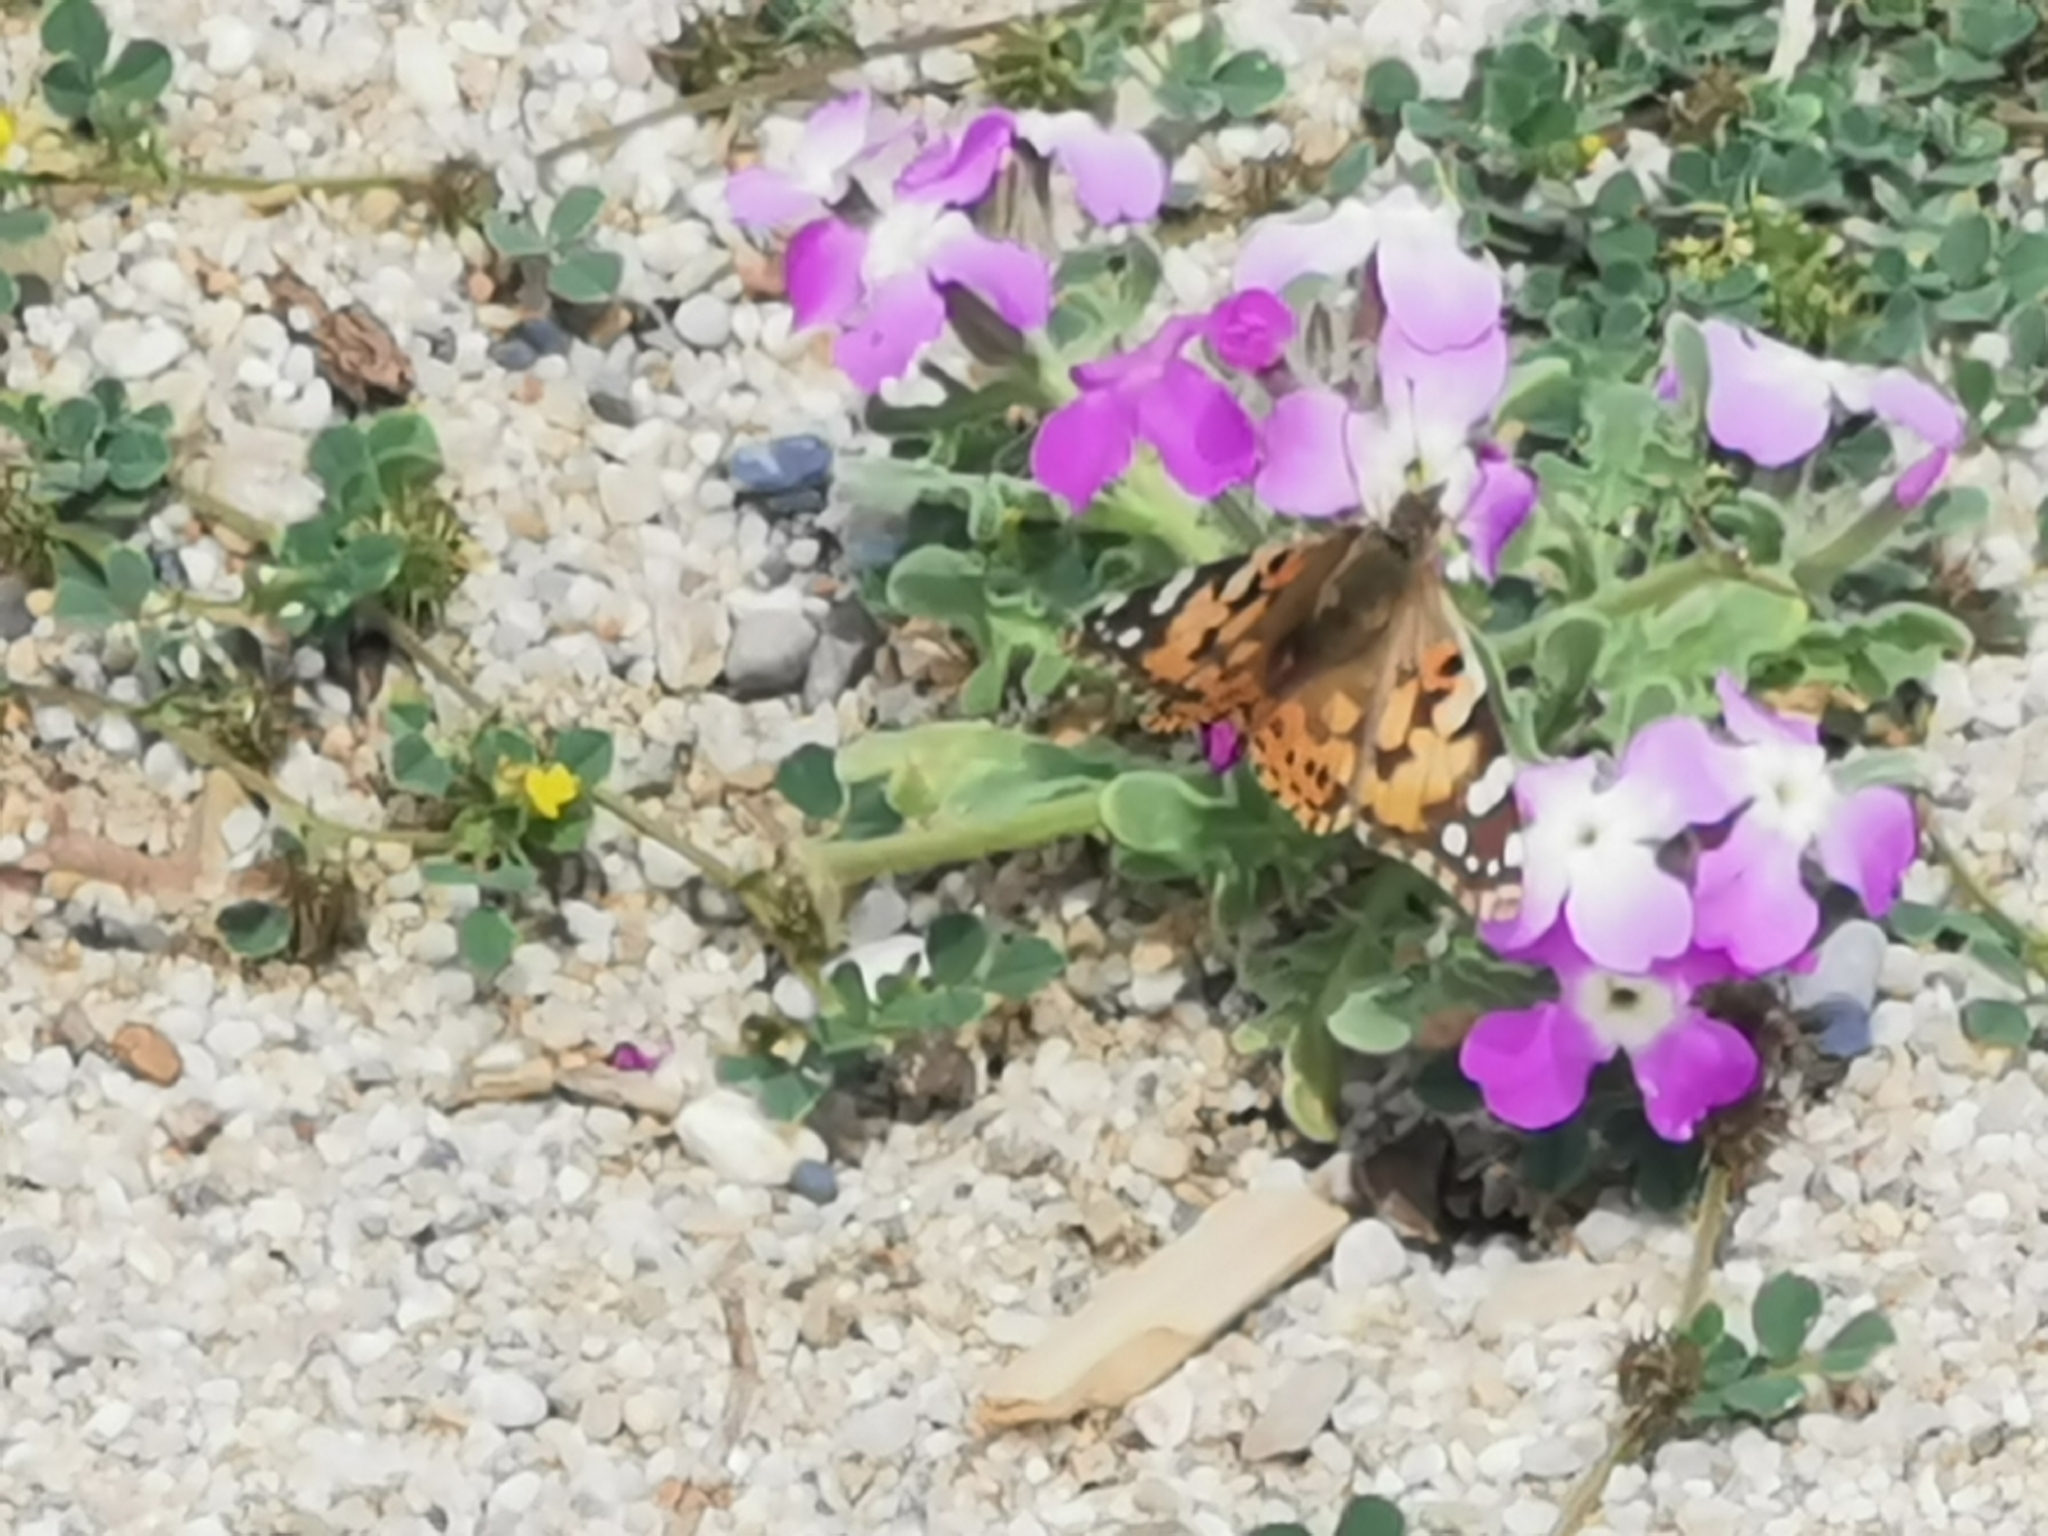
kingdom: Animalia
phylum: Arthropoda
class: Insecta
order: Lepidoptera
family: Nymphalidae
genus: Vanessa
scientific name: Vanessa cardui
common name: Painted lady
